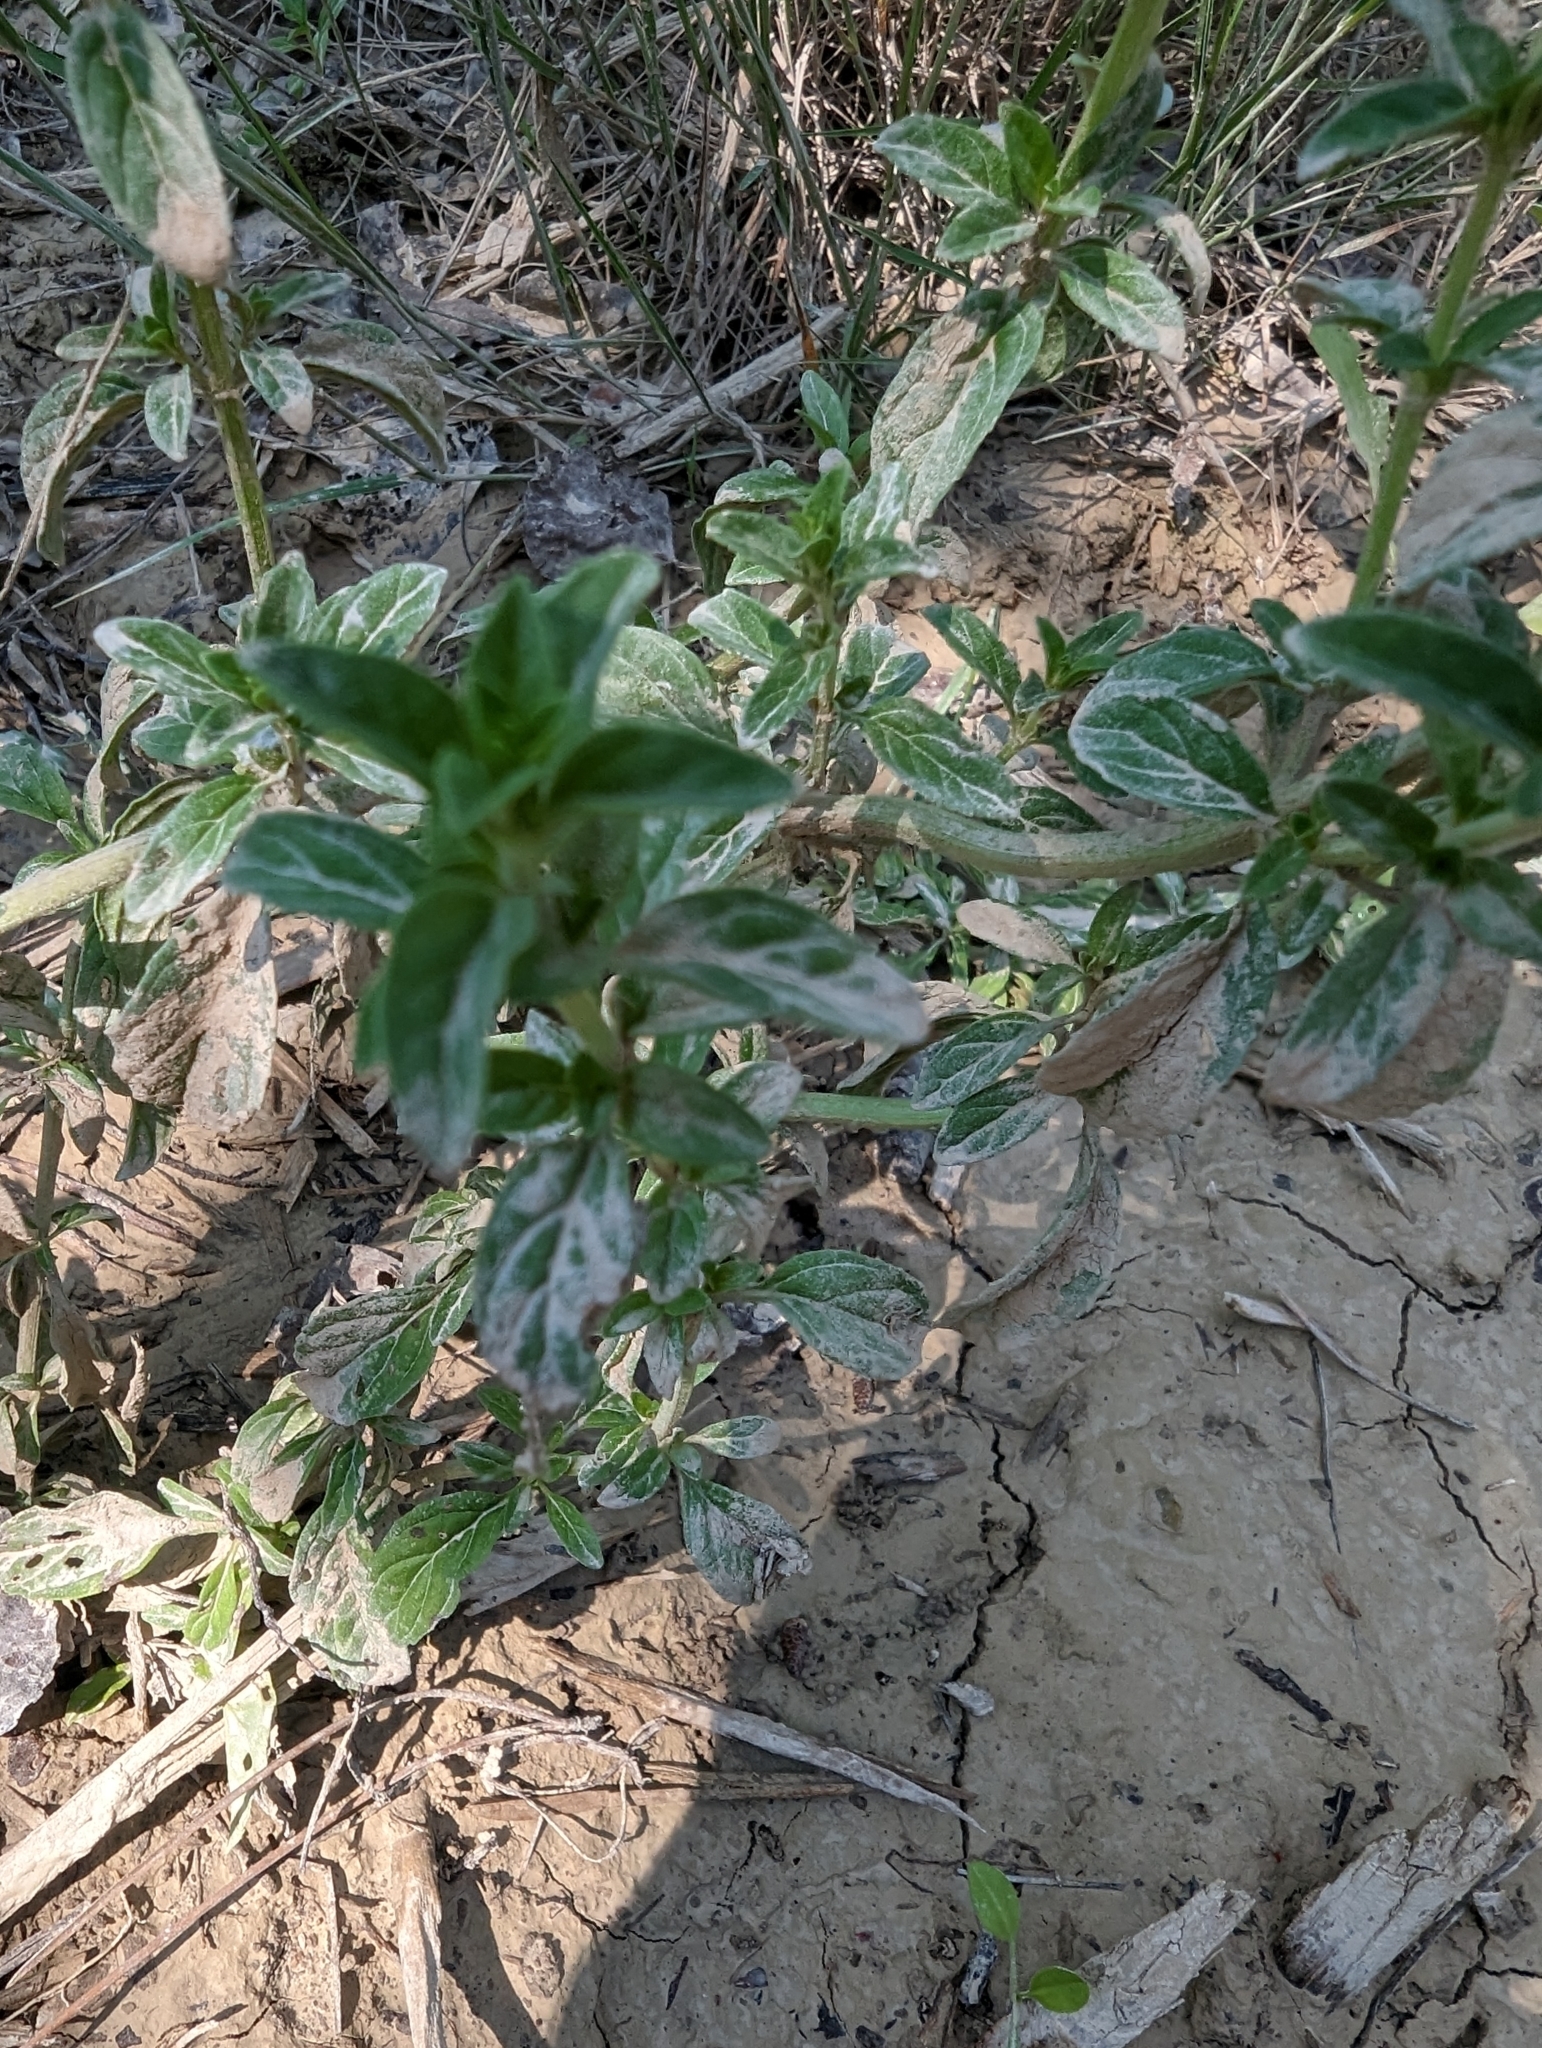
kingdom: Plantae
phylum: Tracheophyta
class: Magnoliopsida
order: Lamiales
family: Lamiaceae
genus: Mentha
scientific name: Mentha pulegium
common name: Pennyroyal
